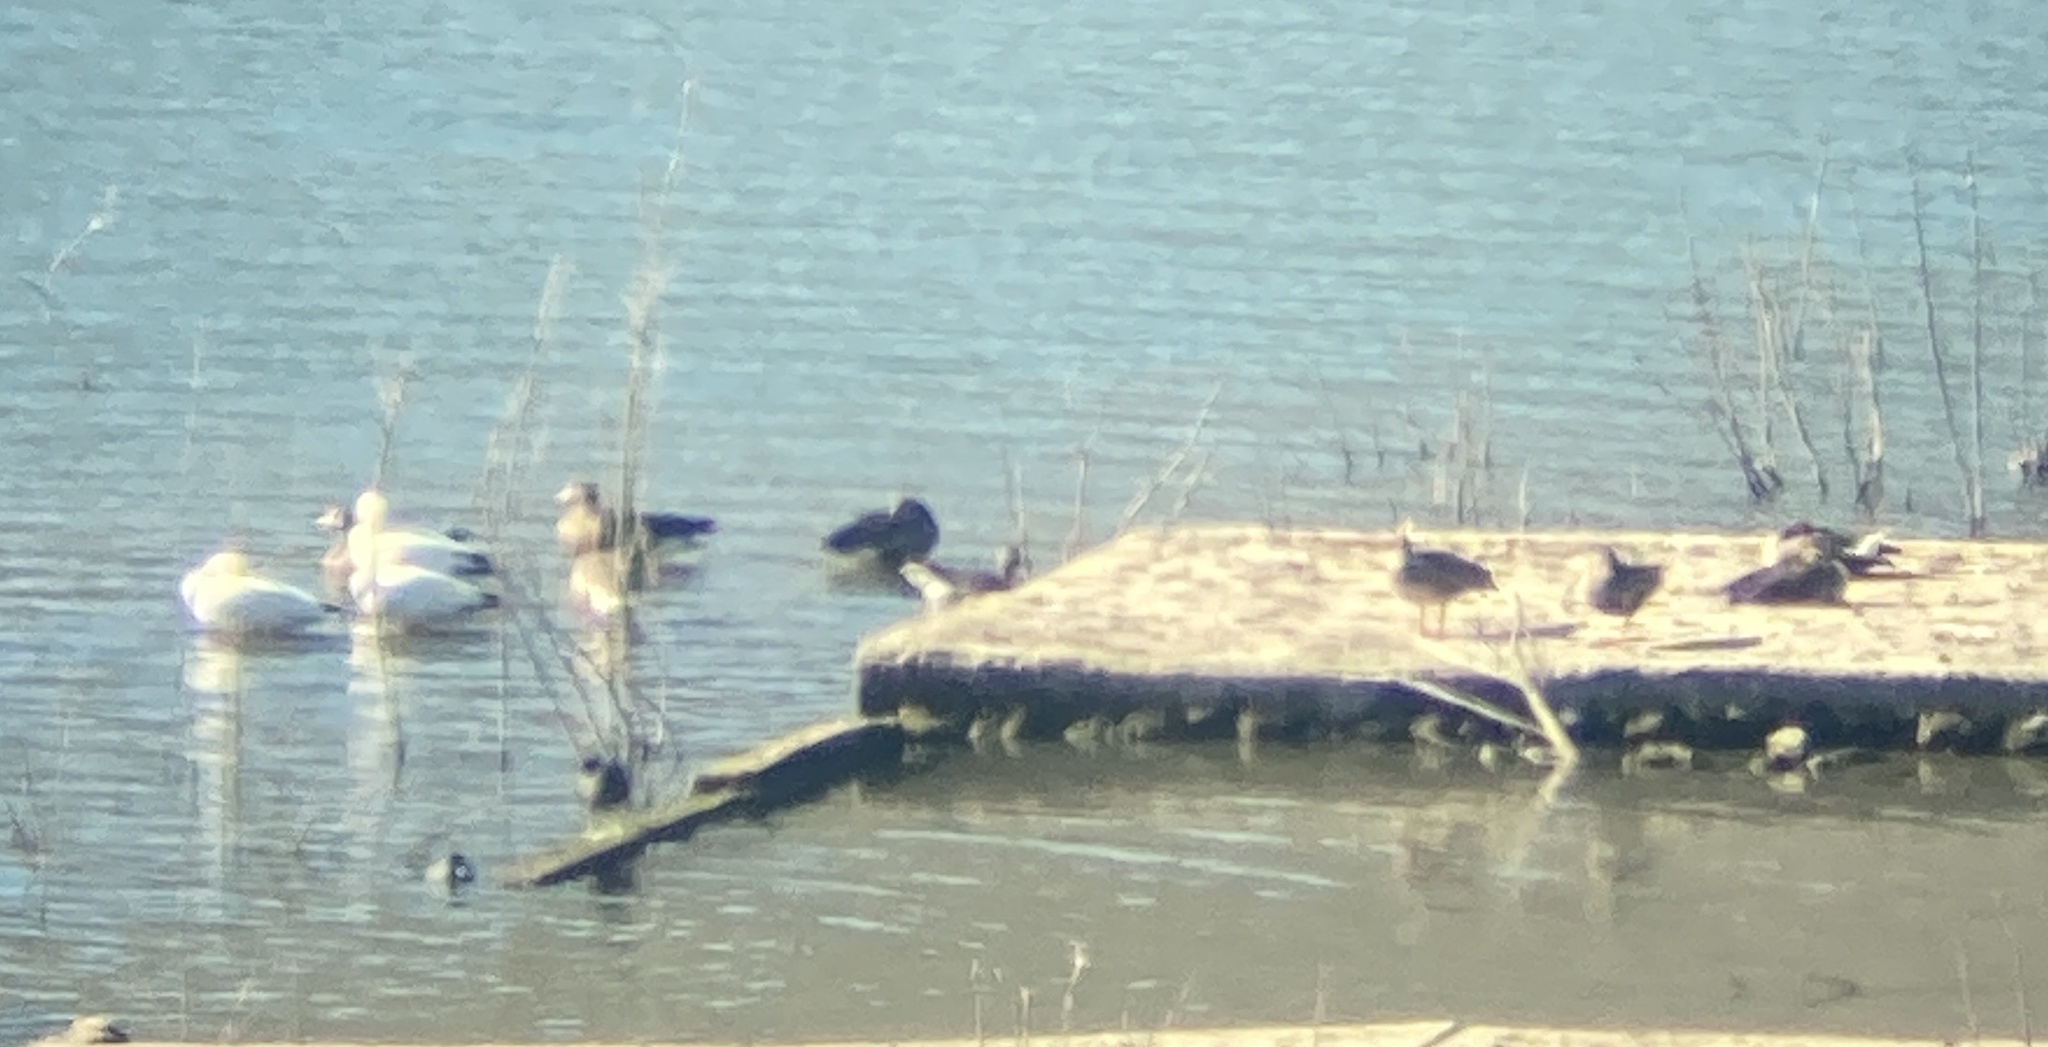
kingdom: Animalia
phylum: Chordata
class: Aves
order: Anseriformes
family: Anatidae
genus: Anser
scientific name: Anser albifrons
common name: Greater white-fronted goose
